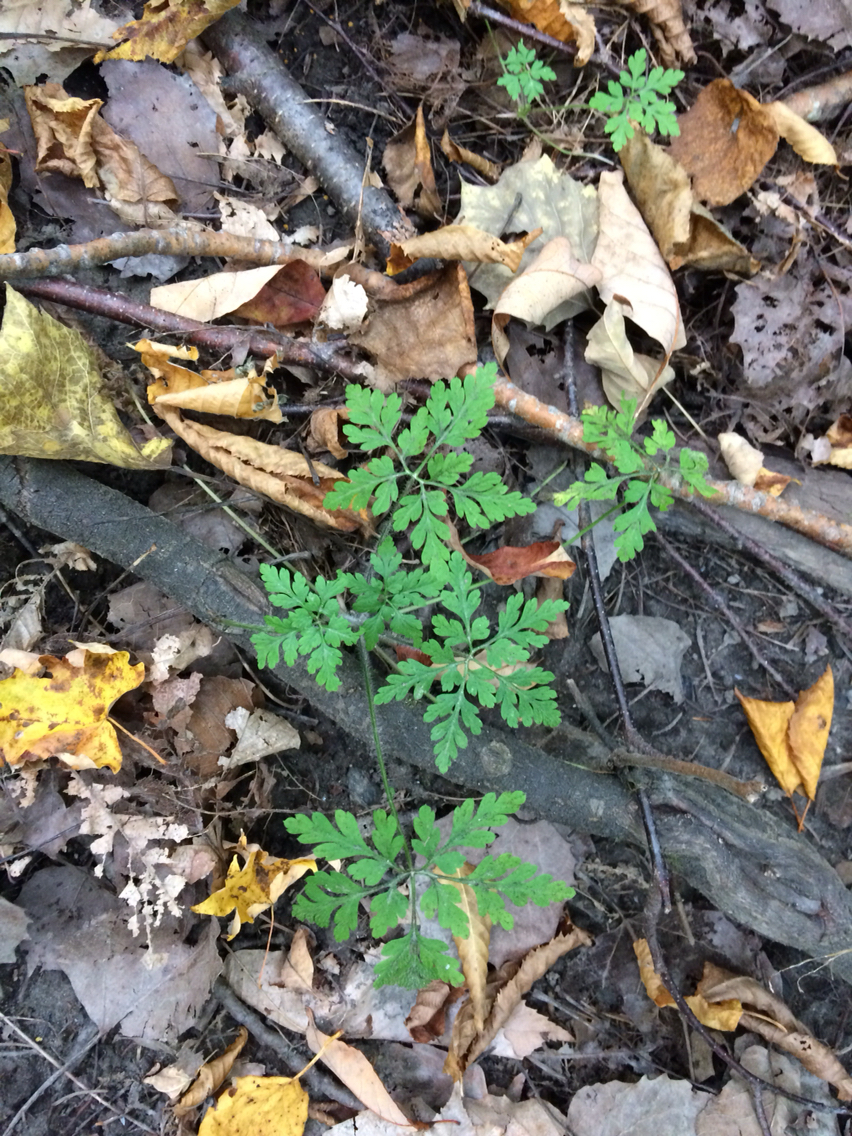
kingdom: Plantae
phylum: Tracheophyta
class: Magnoliopsida
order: Geraniales
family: Geraniaceae
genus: Geranium
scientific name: Geranium robertianum
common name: Herb-robert
